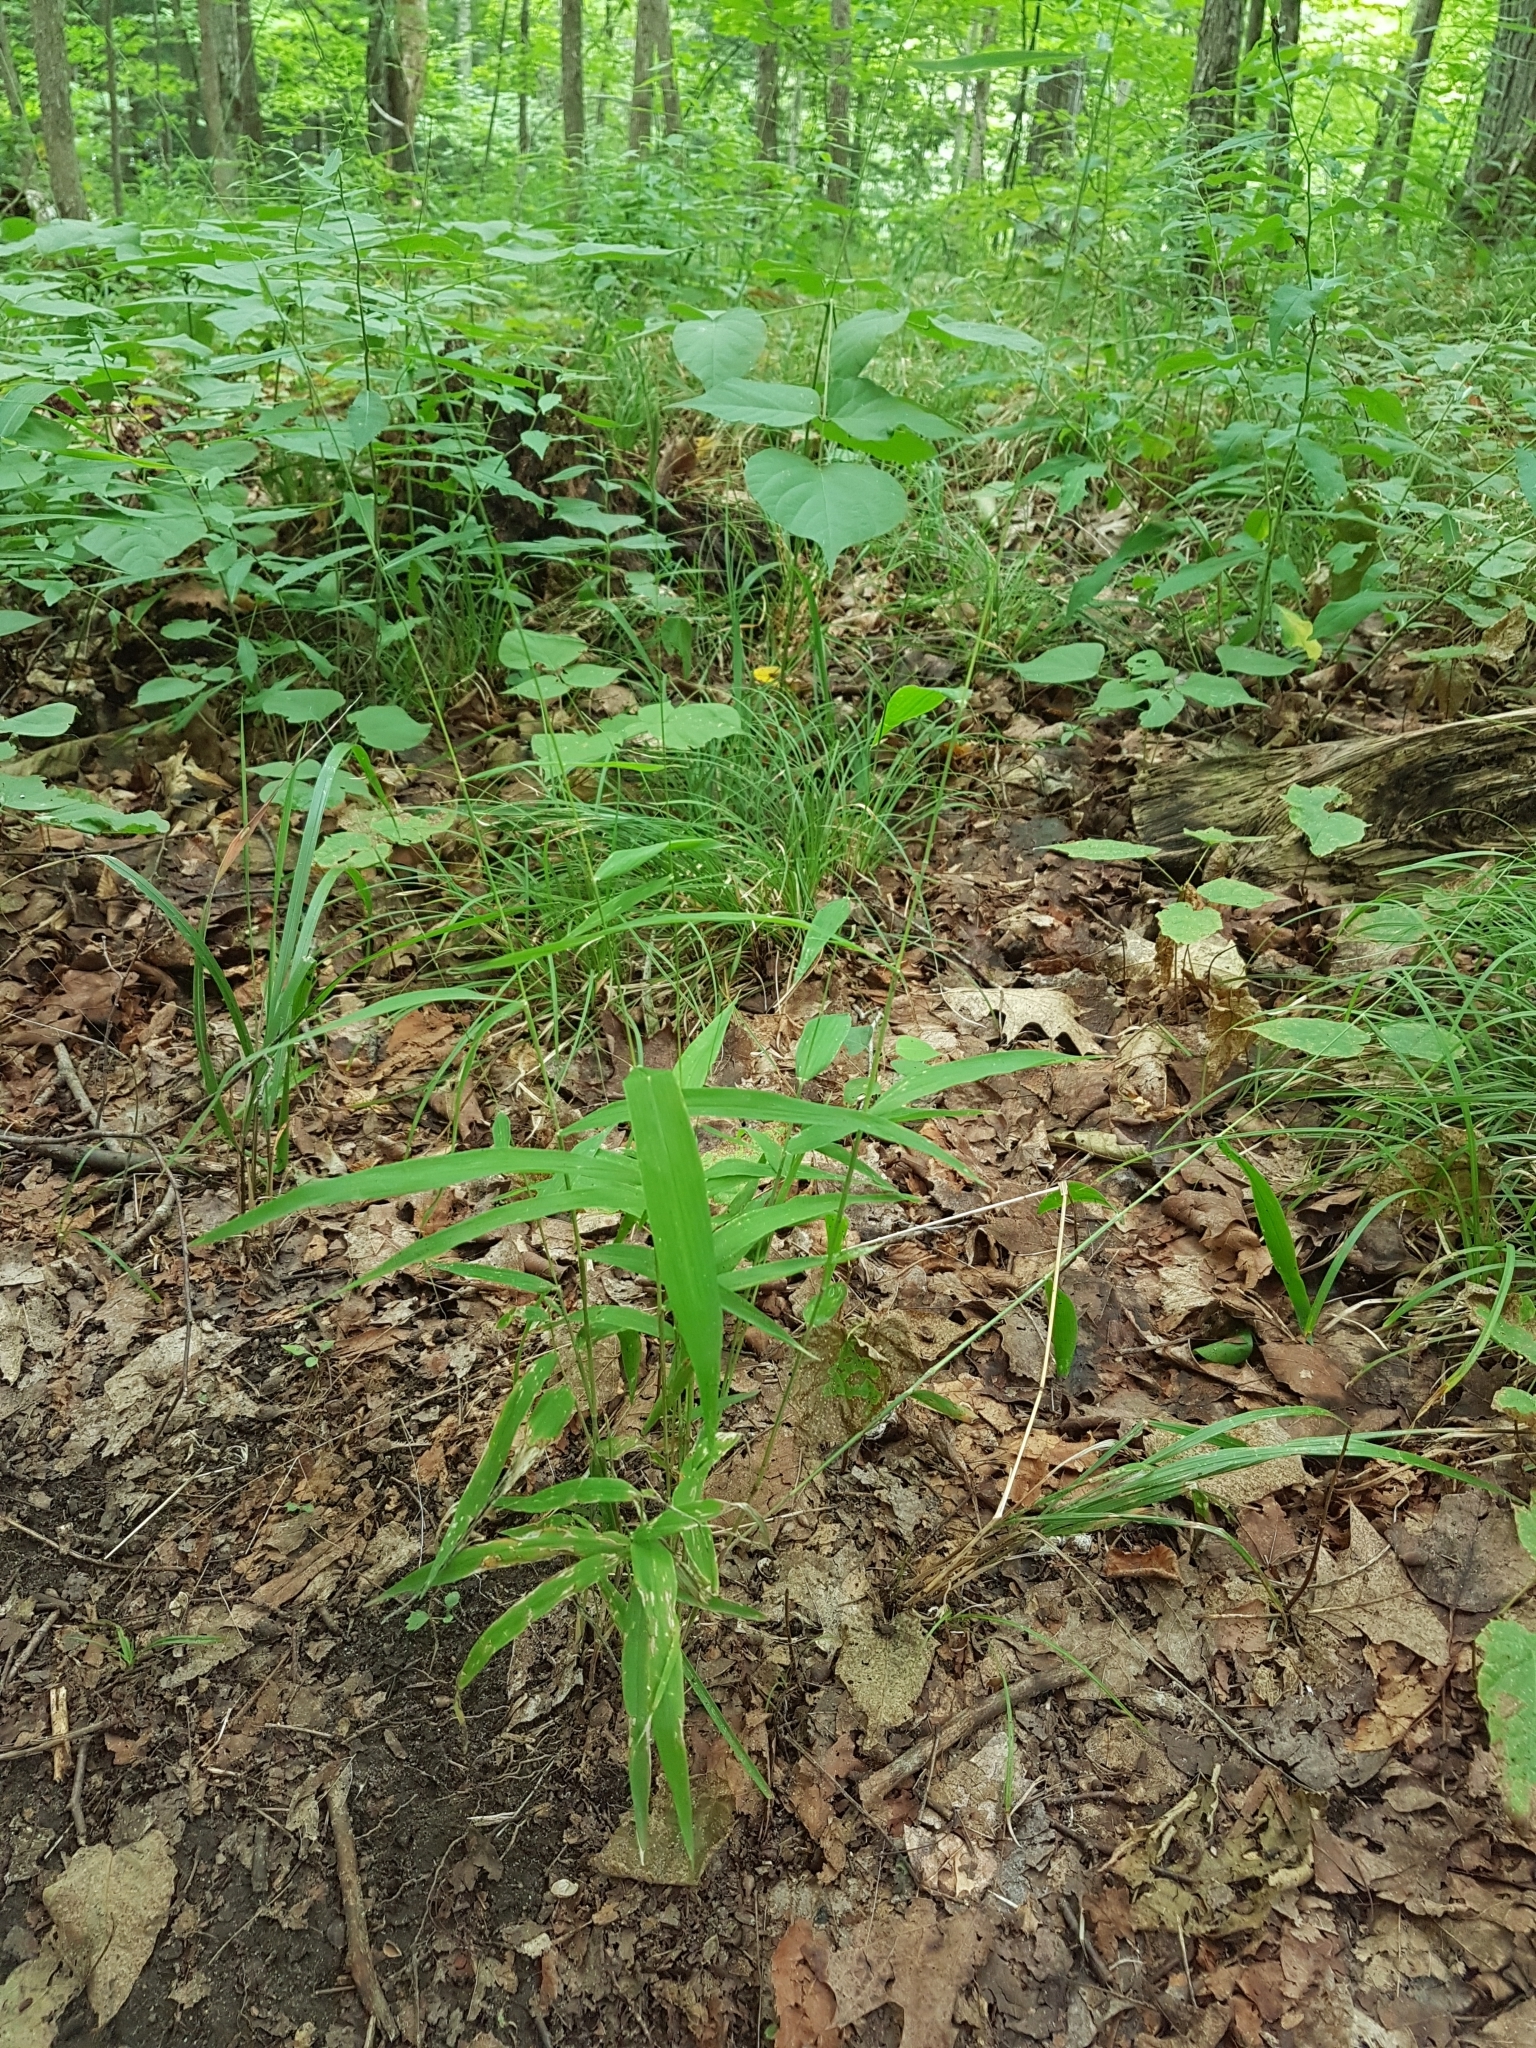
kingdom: Plantae
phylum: Tracheophyta
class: Liliopsida
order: Poales
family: Poaceae
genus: Brachyelytrum
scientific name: Brachyelytrum aristosum
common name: Northern shorthusk
